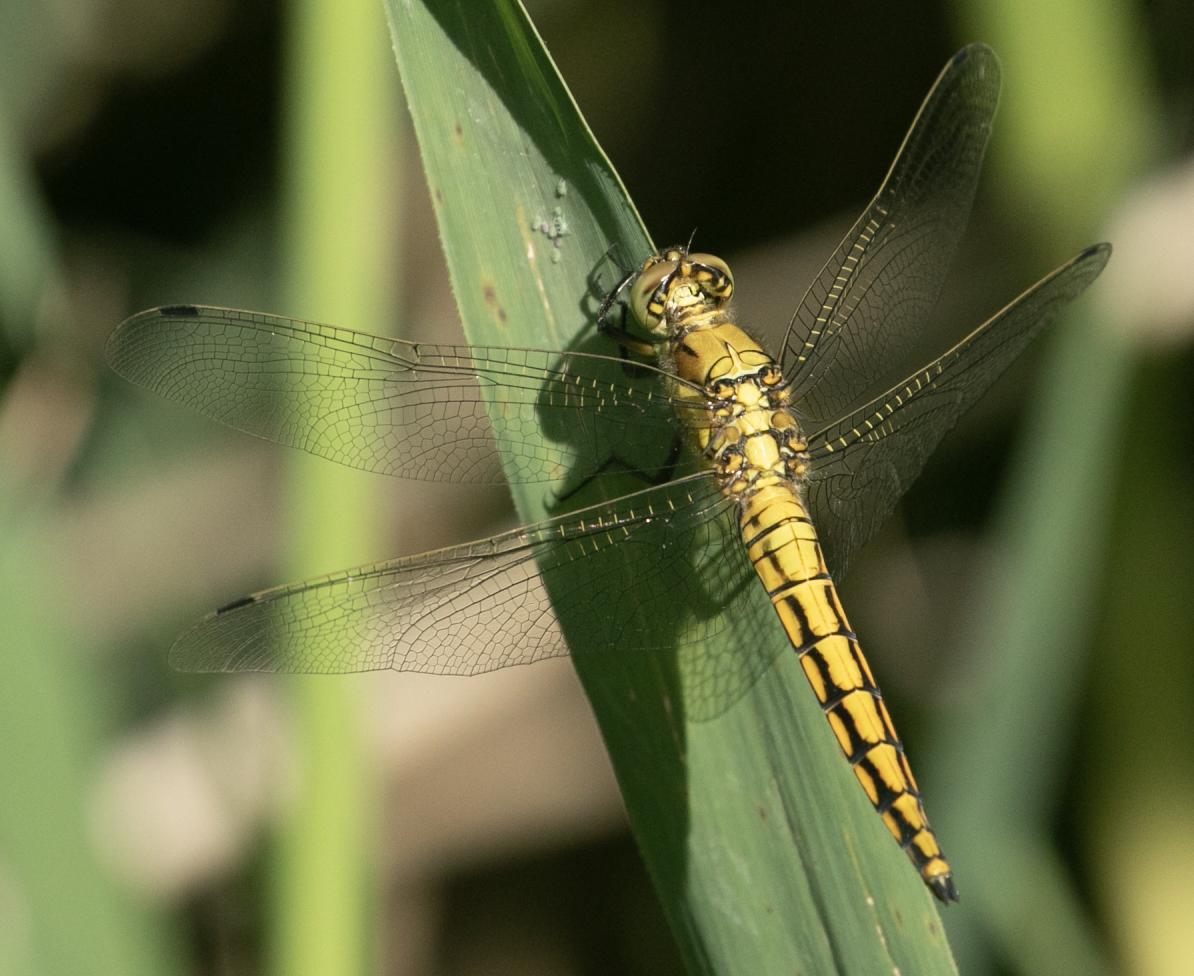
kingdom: Animalia
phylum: Arthropoda
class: Insecta
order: Odonata
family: Libellulidae
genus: Orthetrum
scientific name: Orthetrum cancellatum
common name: Black-tailed skimmer
